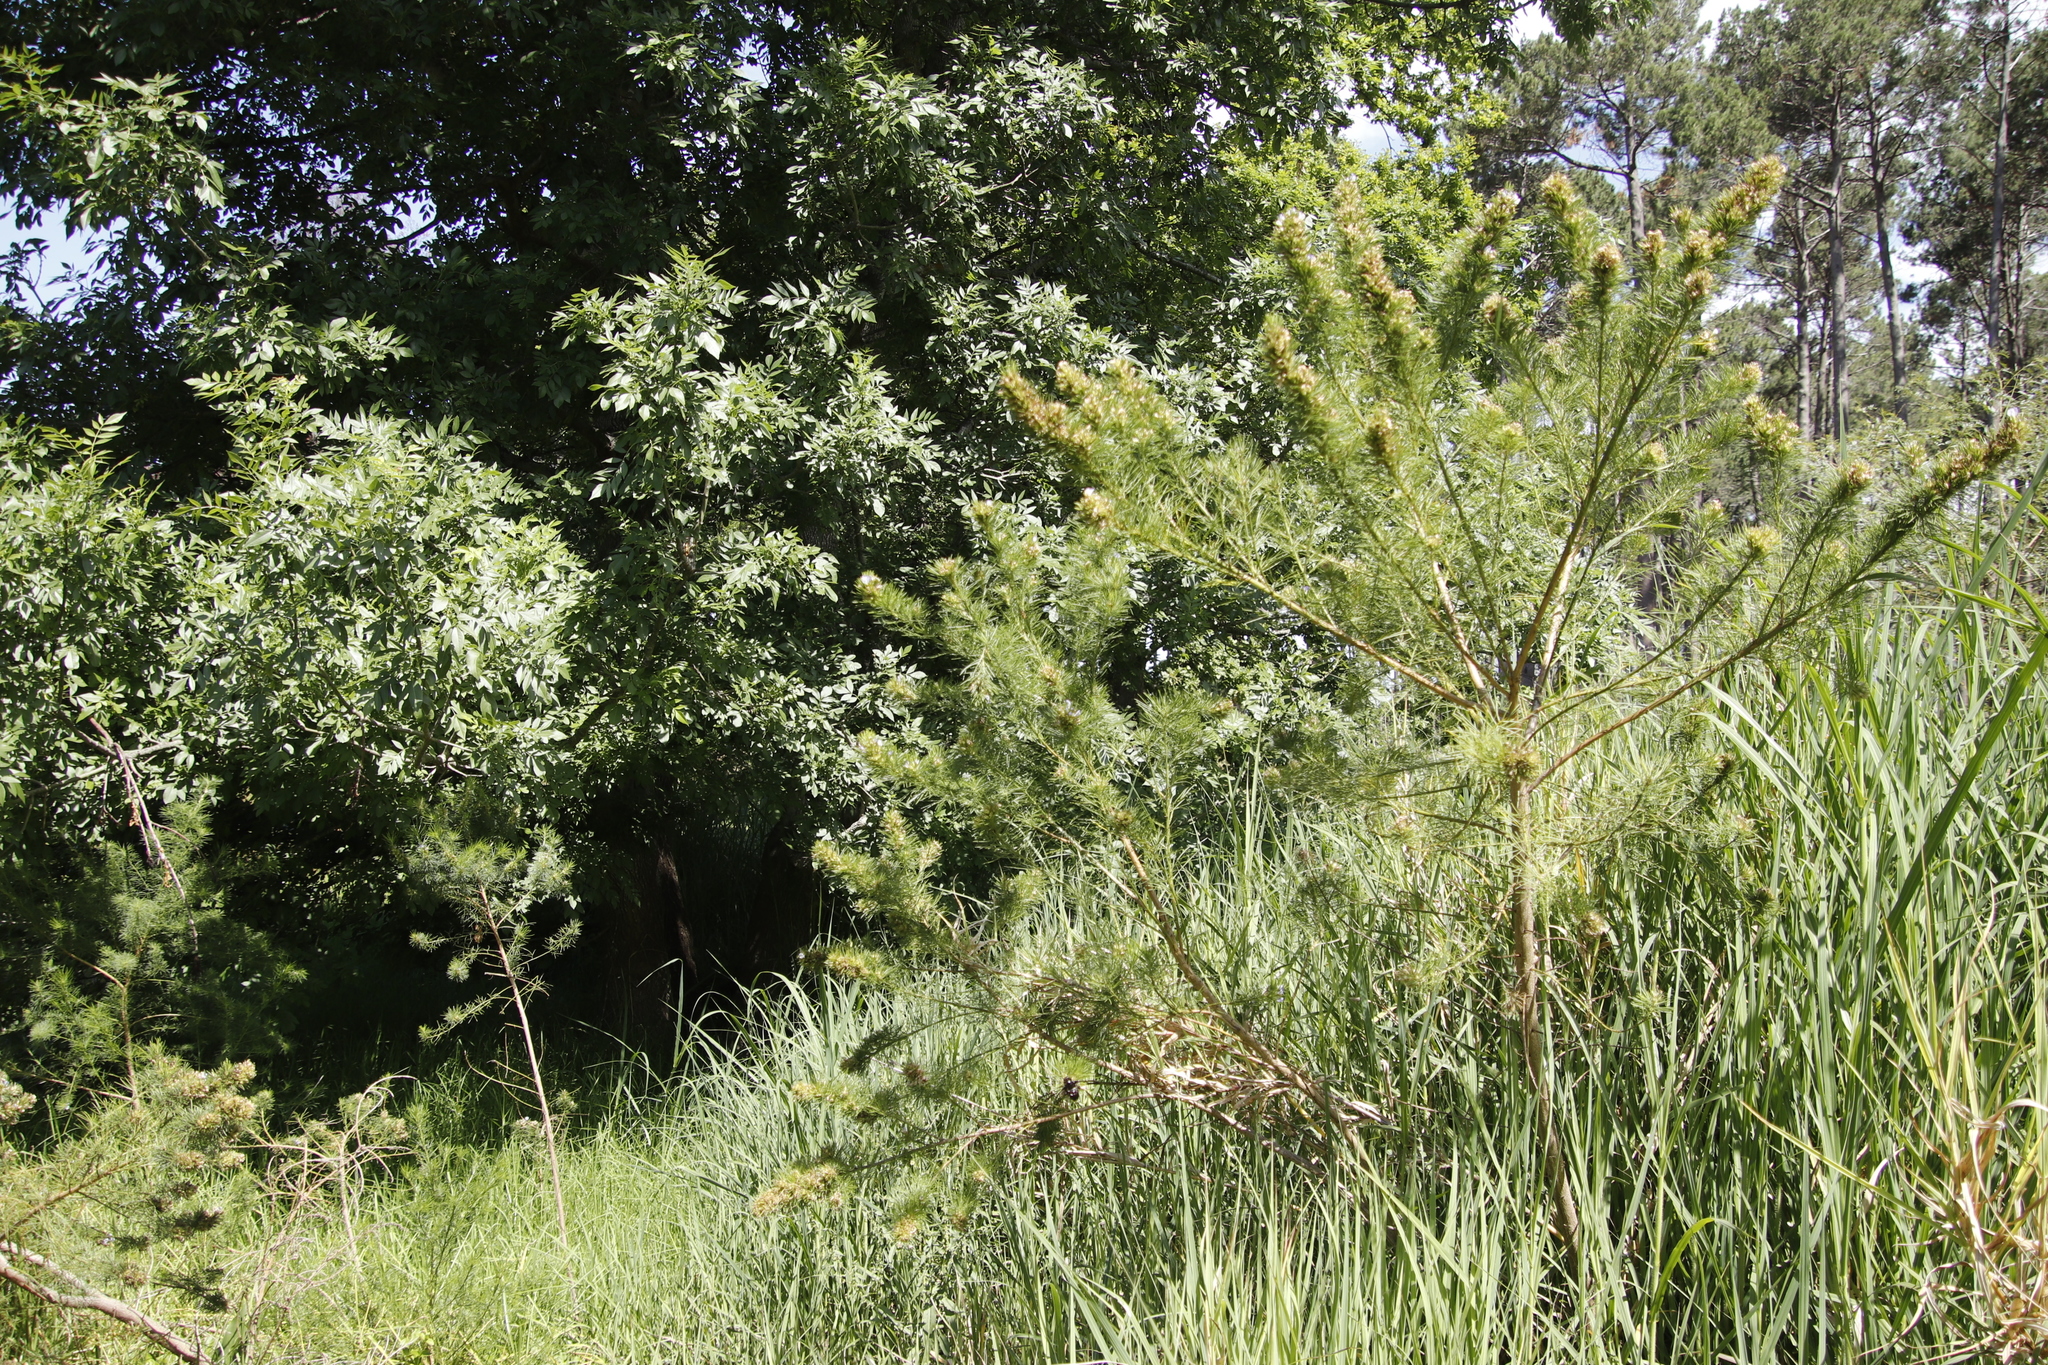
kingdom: Plantae
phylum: Tracheophyta
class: Magnoliopsida
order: Fabales
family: Fabaceae
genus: Psoralea
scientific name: Psoralea pinnata
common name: African scurfpea
